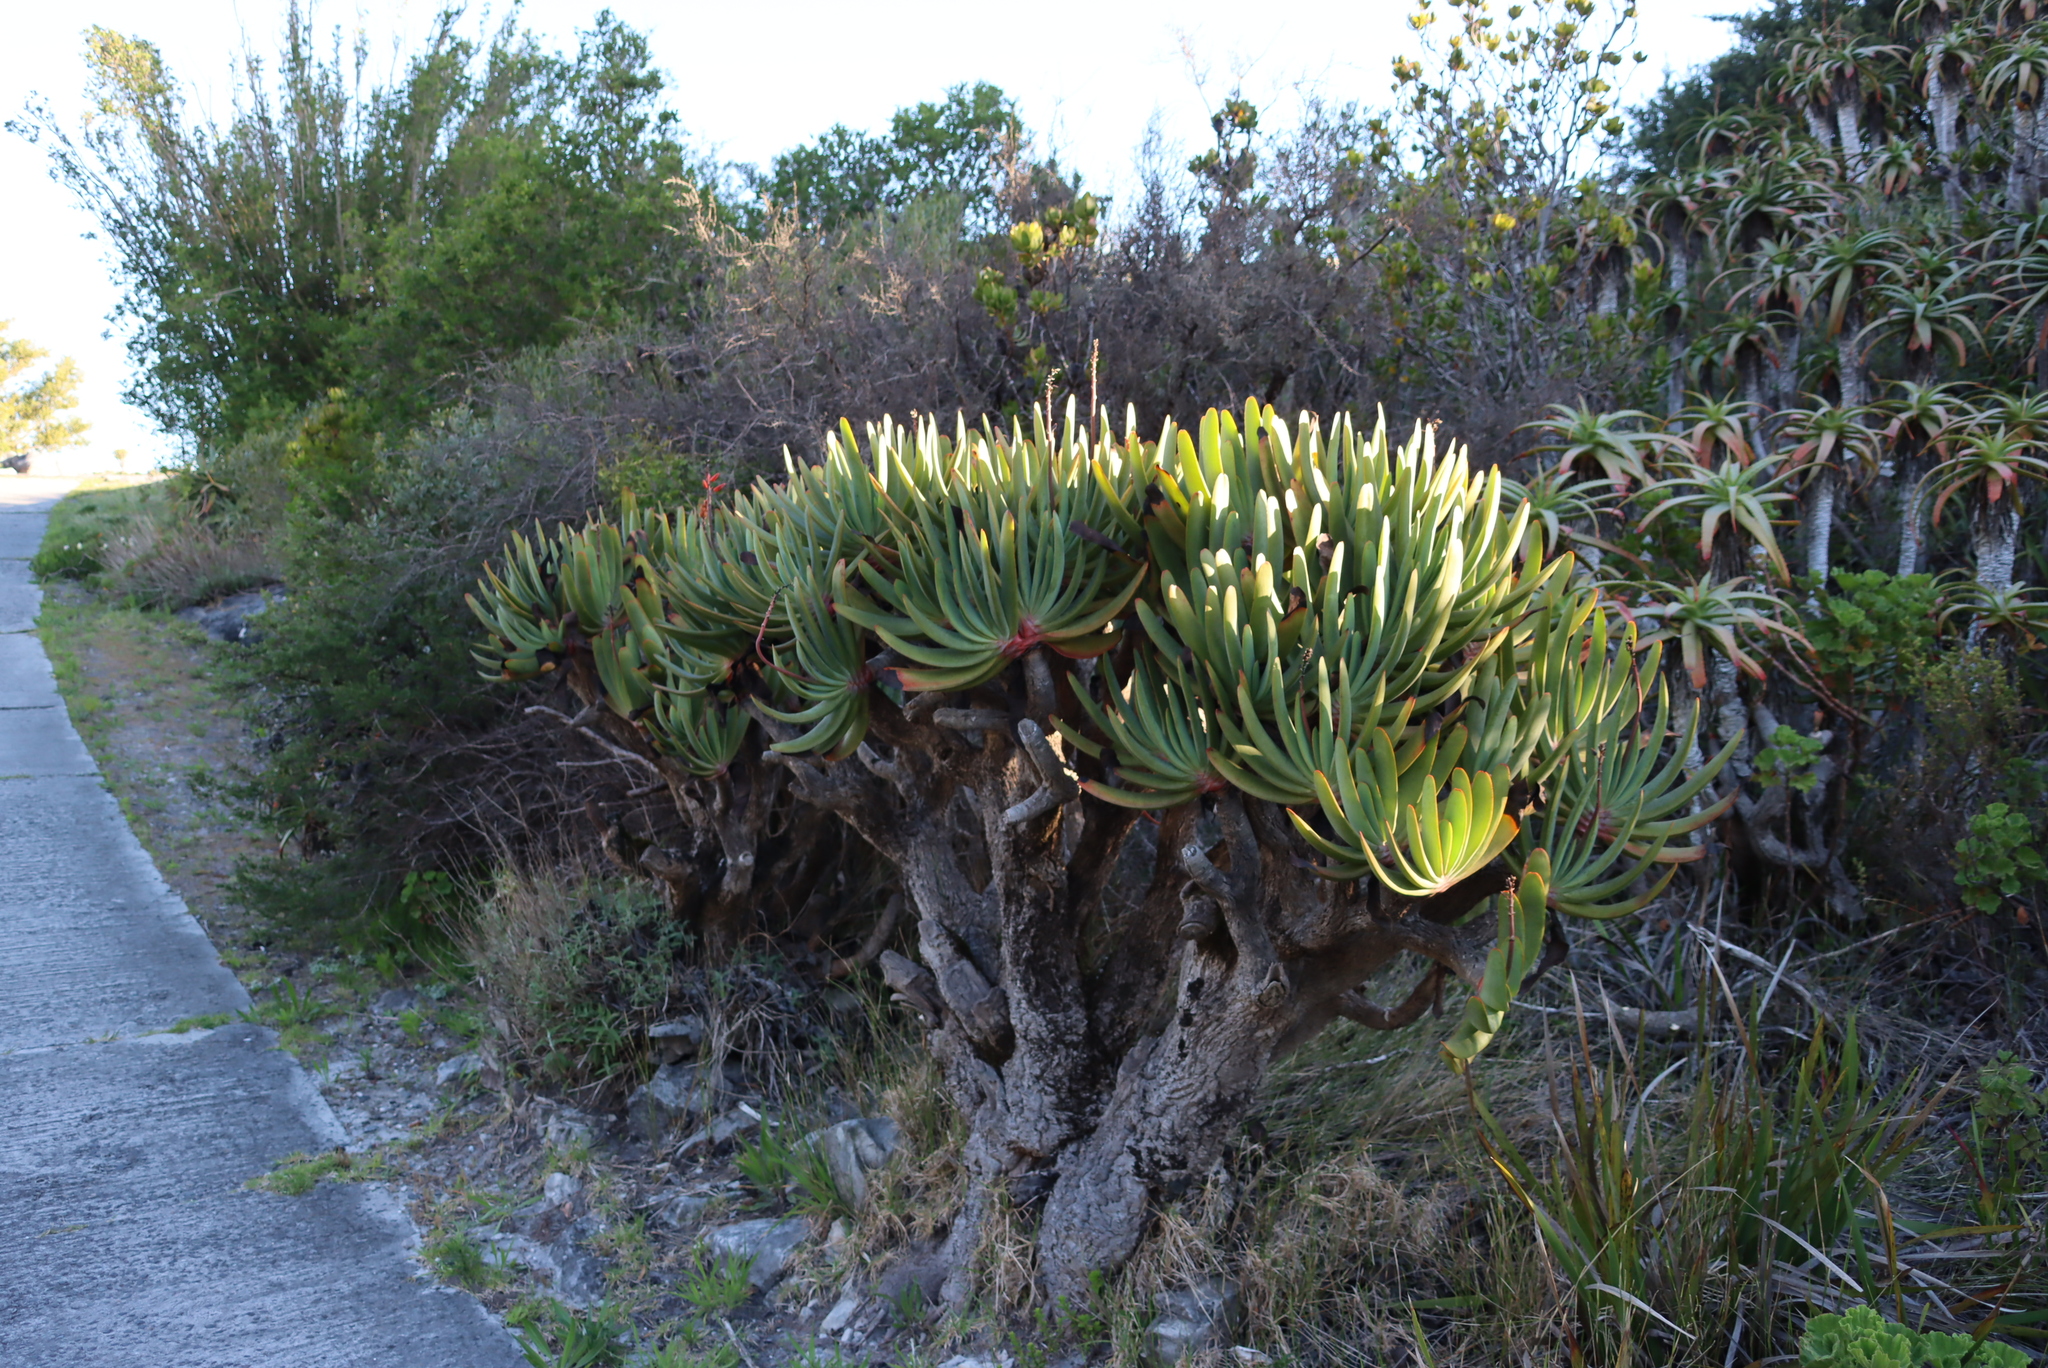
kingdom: Plantae
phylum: Tracheophyta
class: Liliopsida
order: Asparagales
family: Asphodelaceae
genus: Kumara
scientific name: Kumara plicatilis
